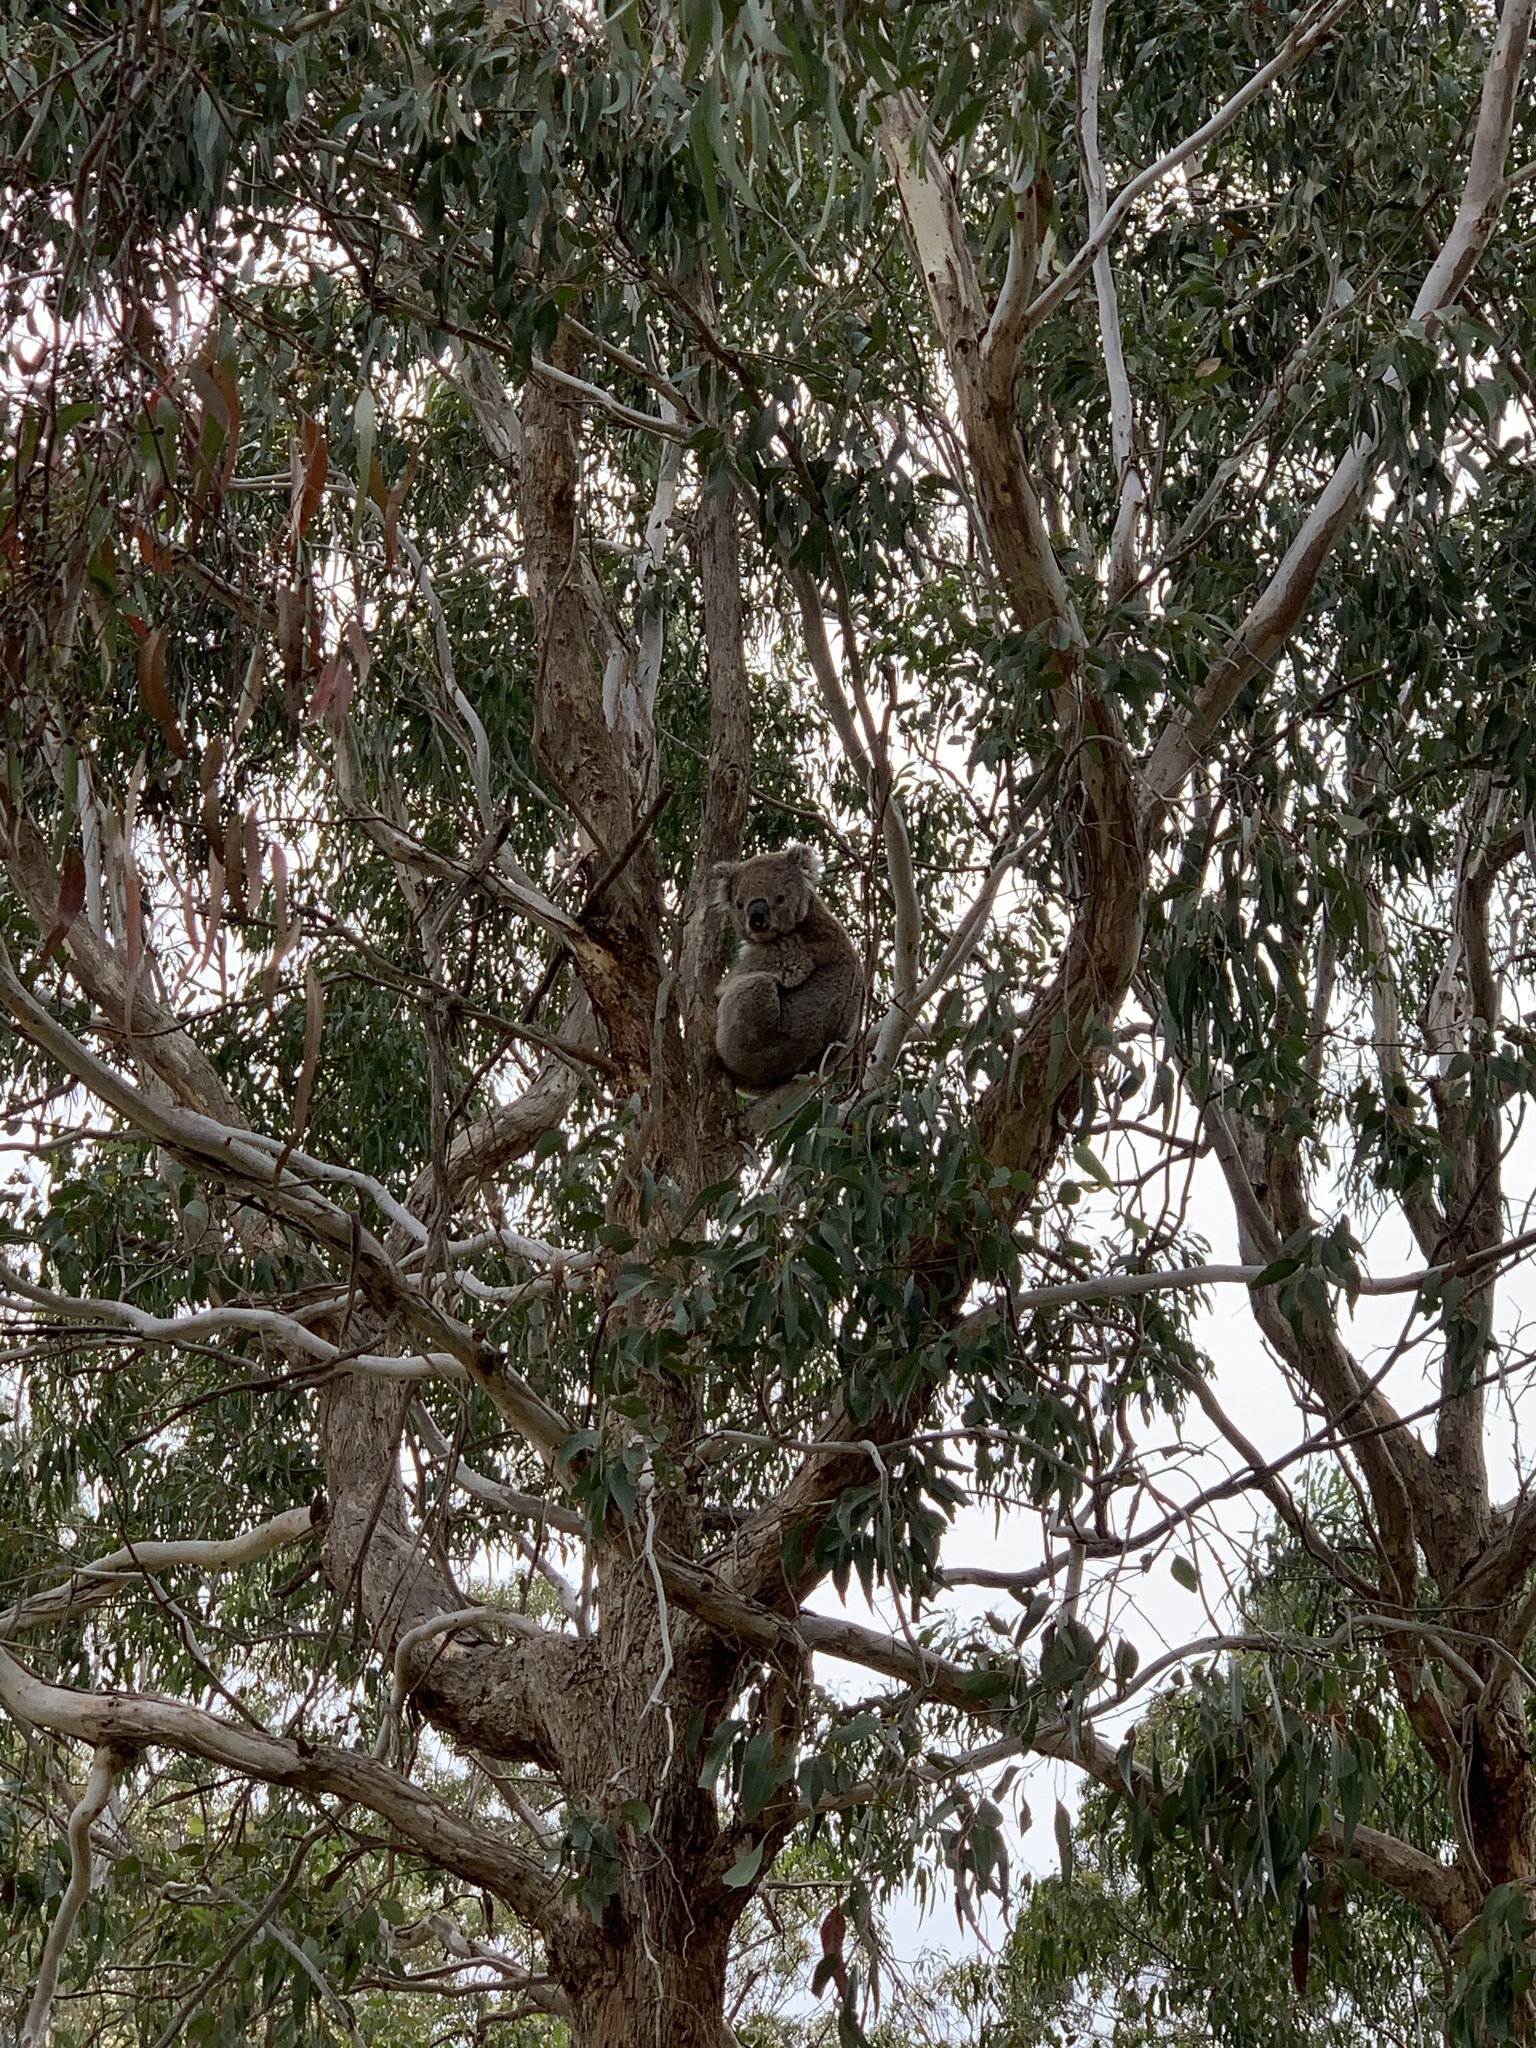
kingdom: Animalia
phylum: Chordata
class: Mammalia
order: Diprotodontia
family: Phascolarctidae
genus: Phascolarctos
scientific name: Phascolarctos cinereus
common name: Koala
